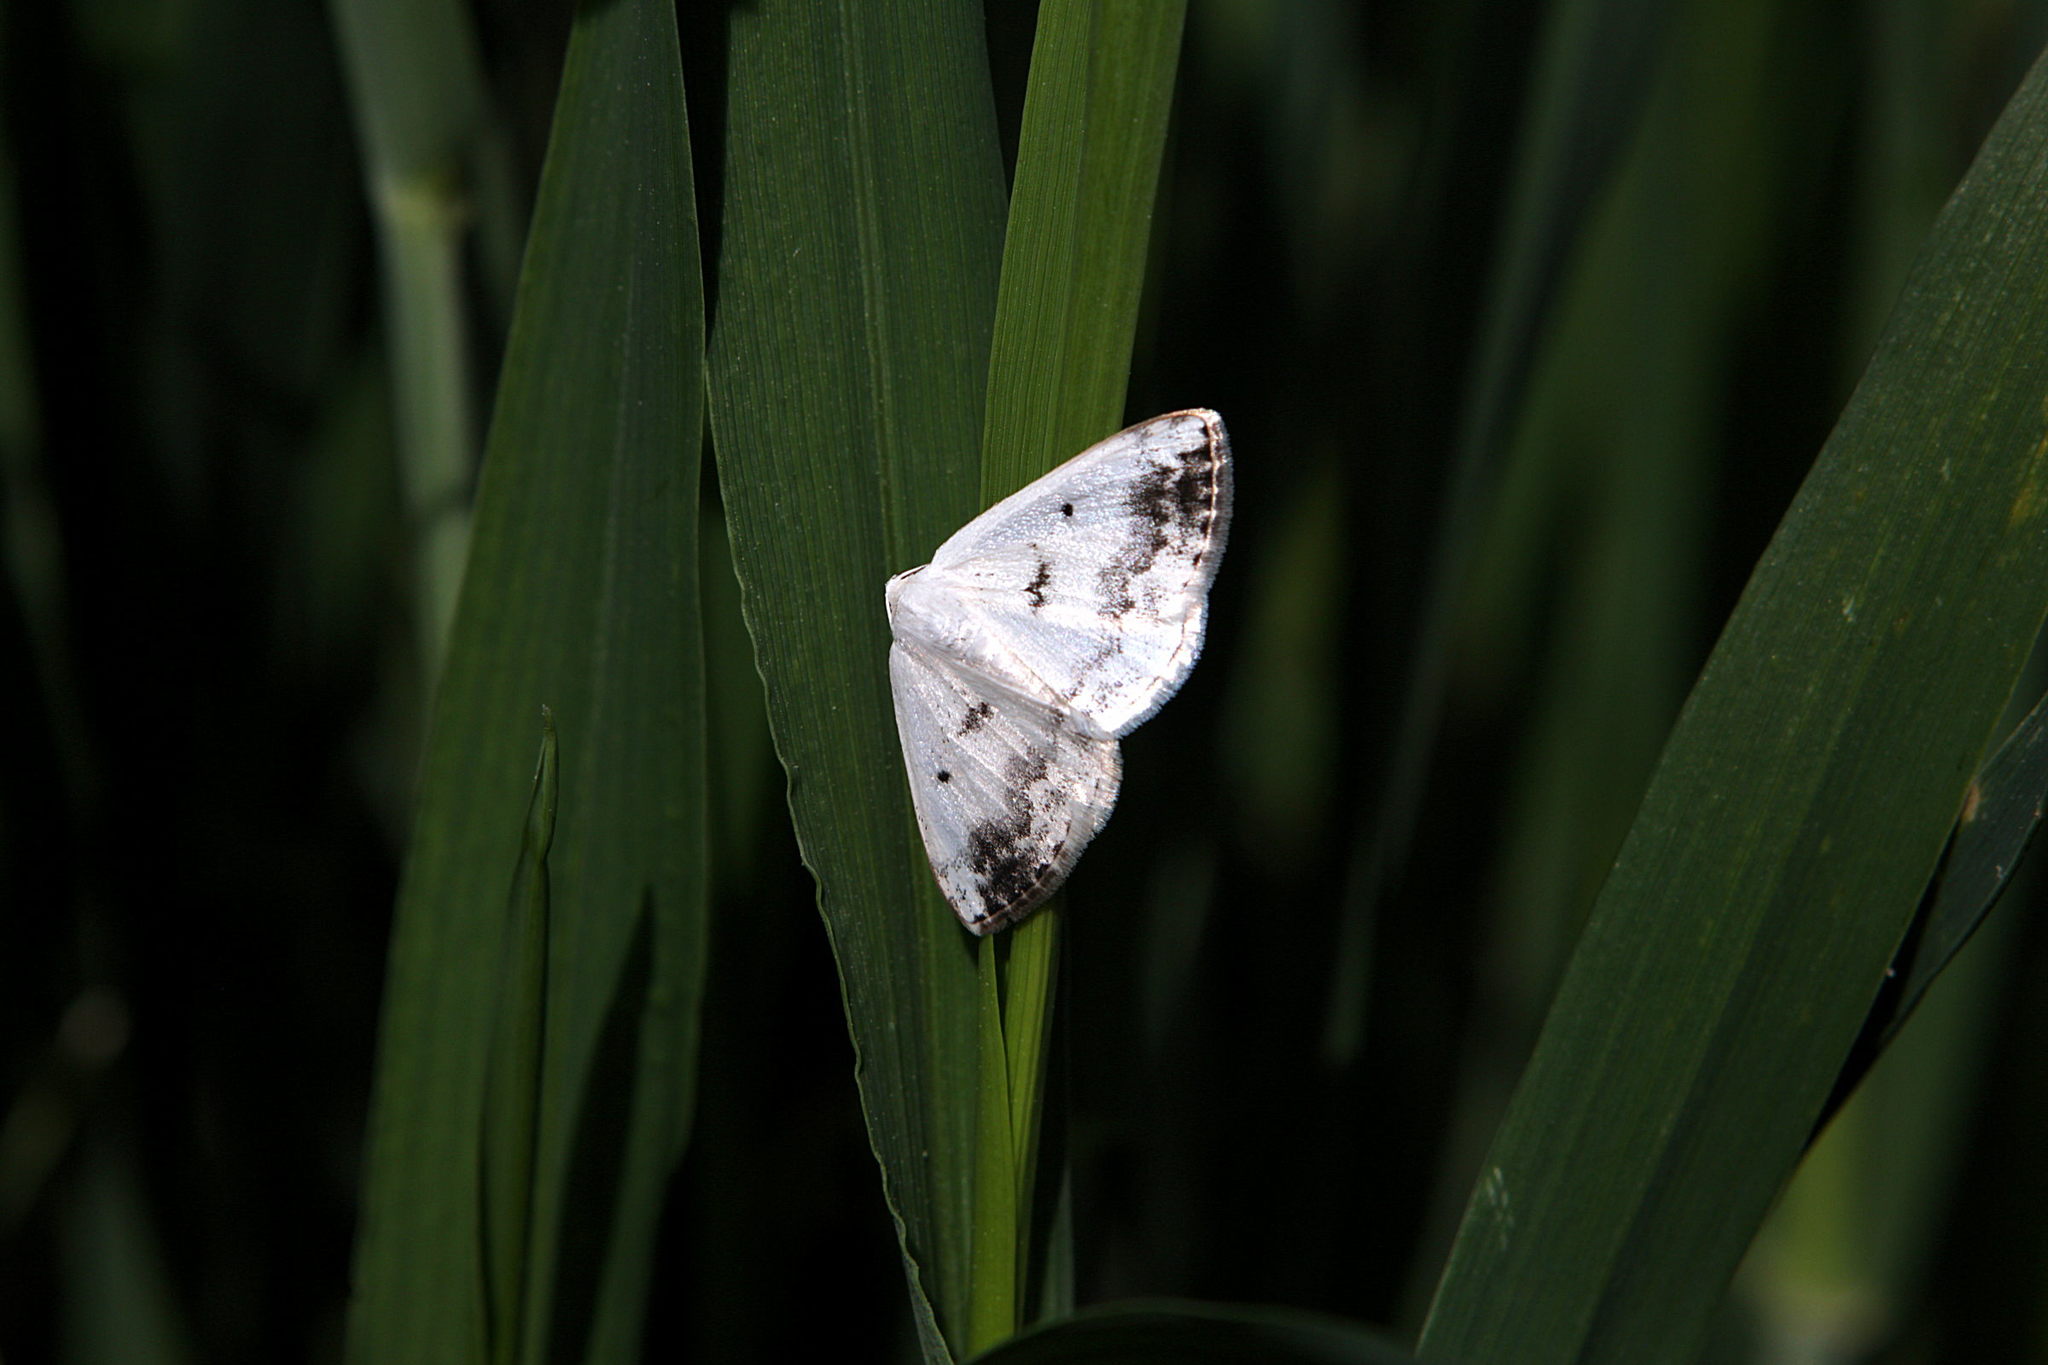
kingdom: Animalia
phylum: Arthropoda
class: Insecta
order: Lepidoptera
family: Geometridae
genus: Lomographa
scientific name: Lomographa temerata
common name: Clouded silver
